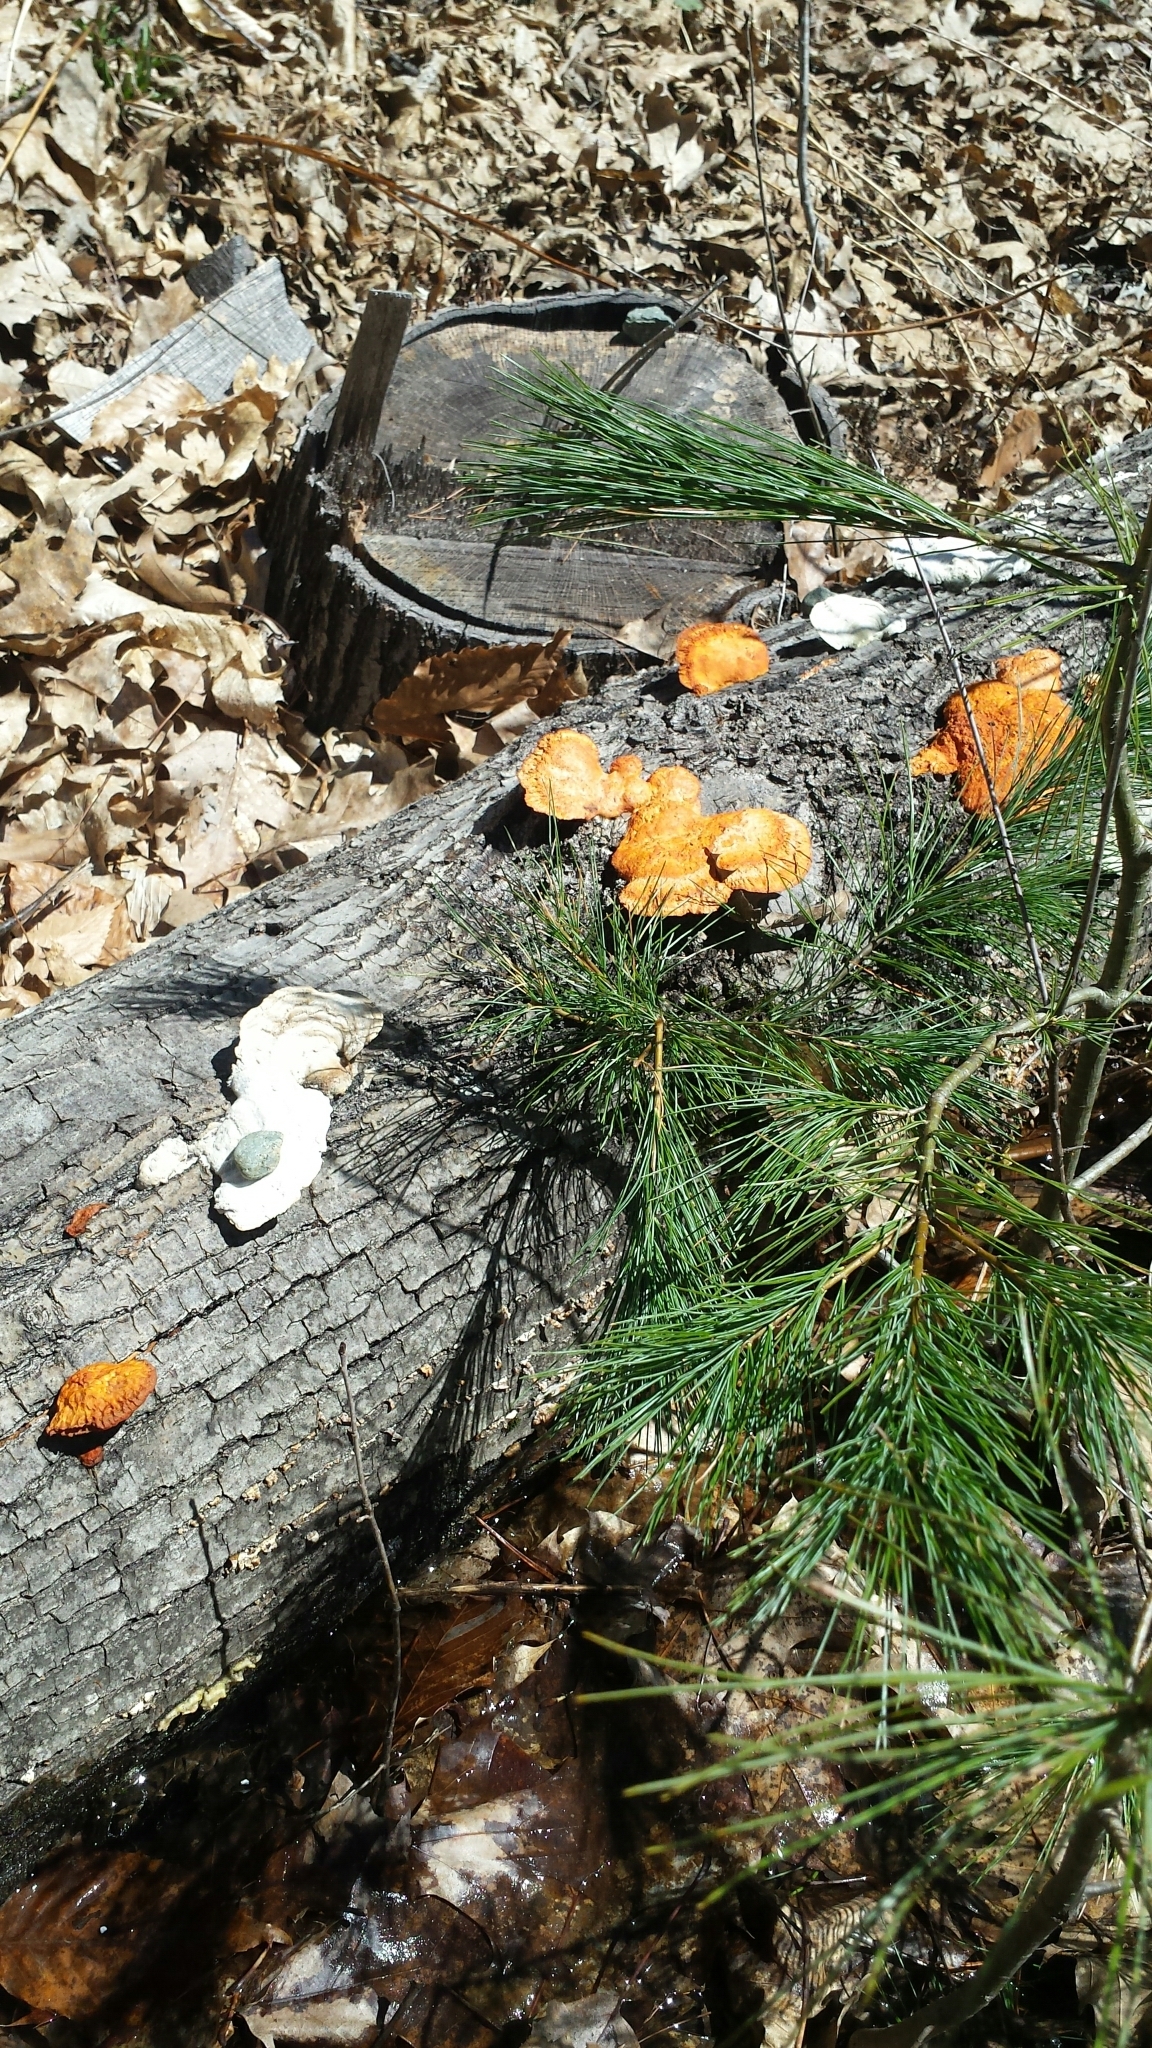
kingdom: Fungi
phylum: Basidiomycota
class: Agaricomycetes
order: Polyporales
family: Polyporaceae
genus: Trametes
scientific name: Trametes cinnabarina
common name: Northern cinnabar polypore
